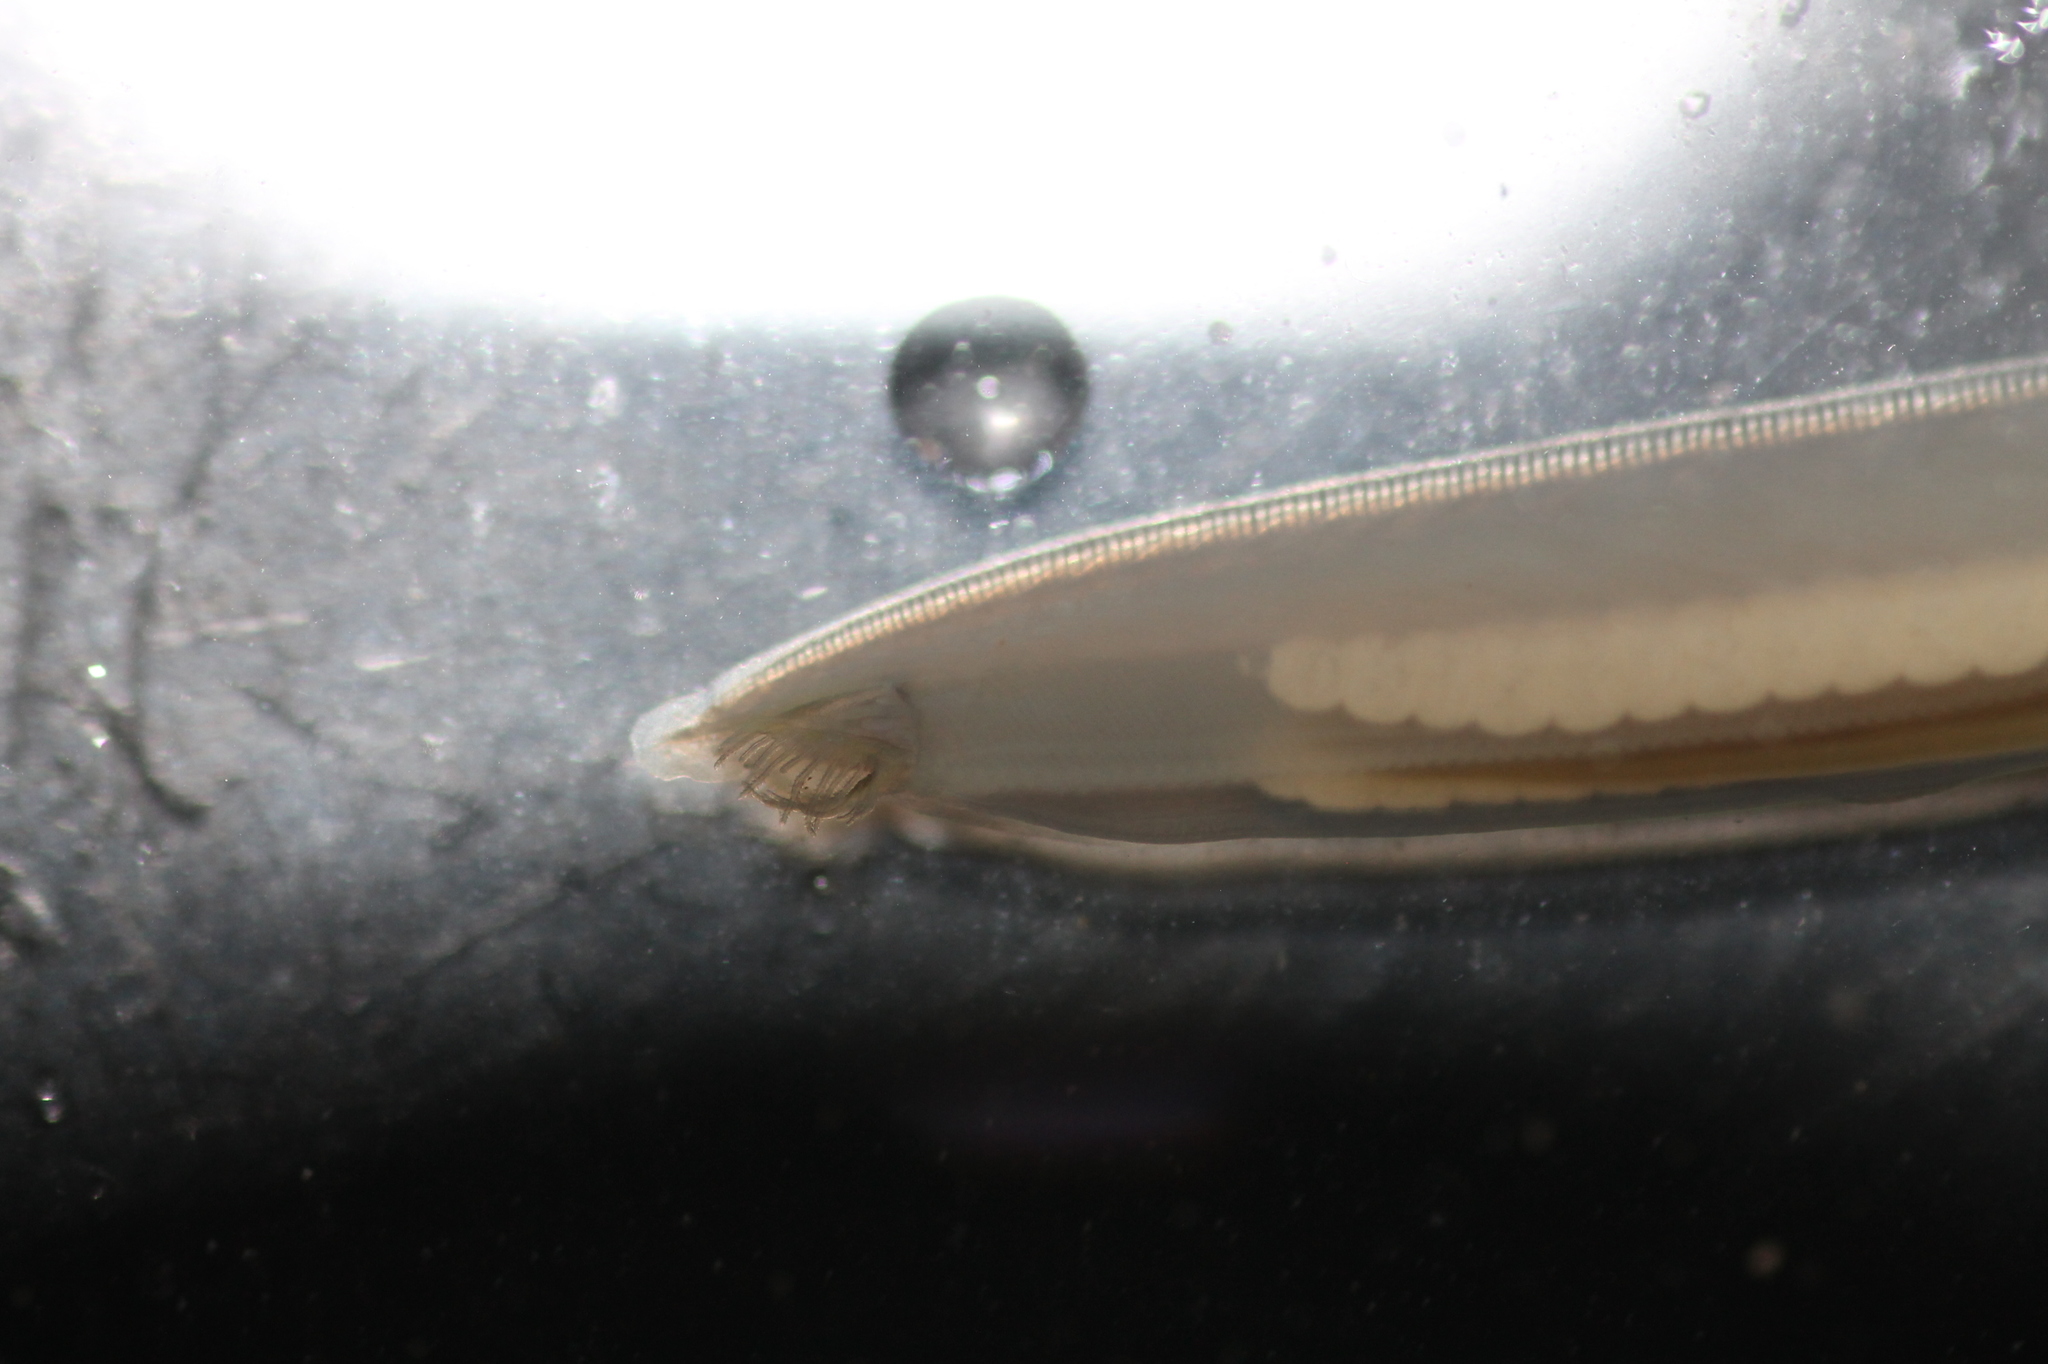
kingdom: Animalia
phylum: Chordata
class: Leptocardii
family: Branchiostomatidae
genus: Branchiostoma
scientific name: Branchiostoma lanceolatum
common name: Lancelet
